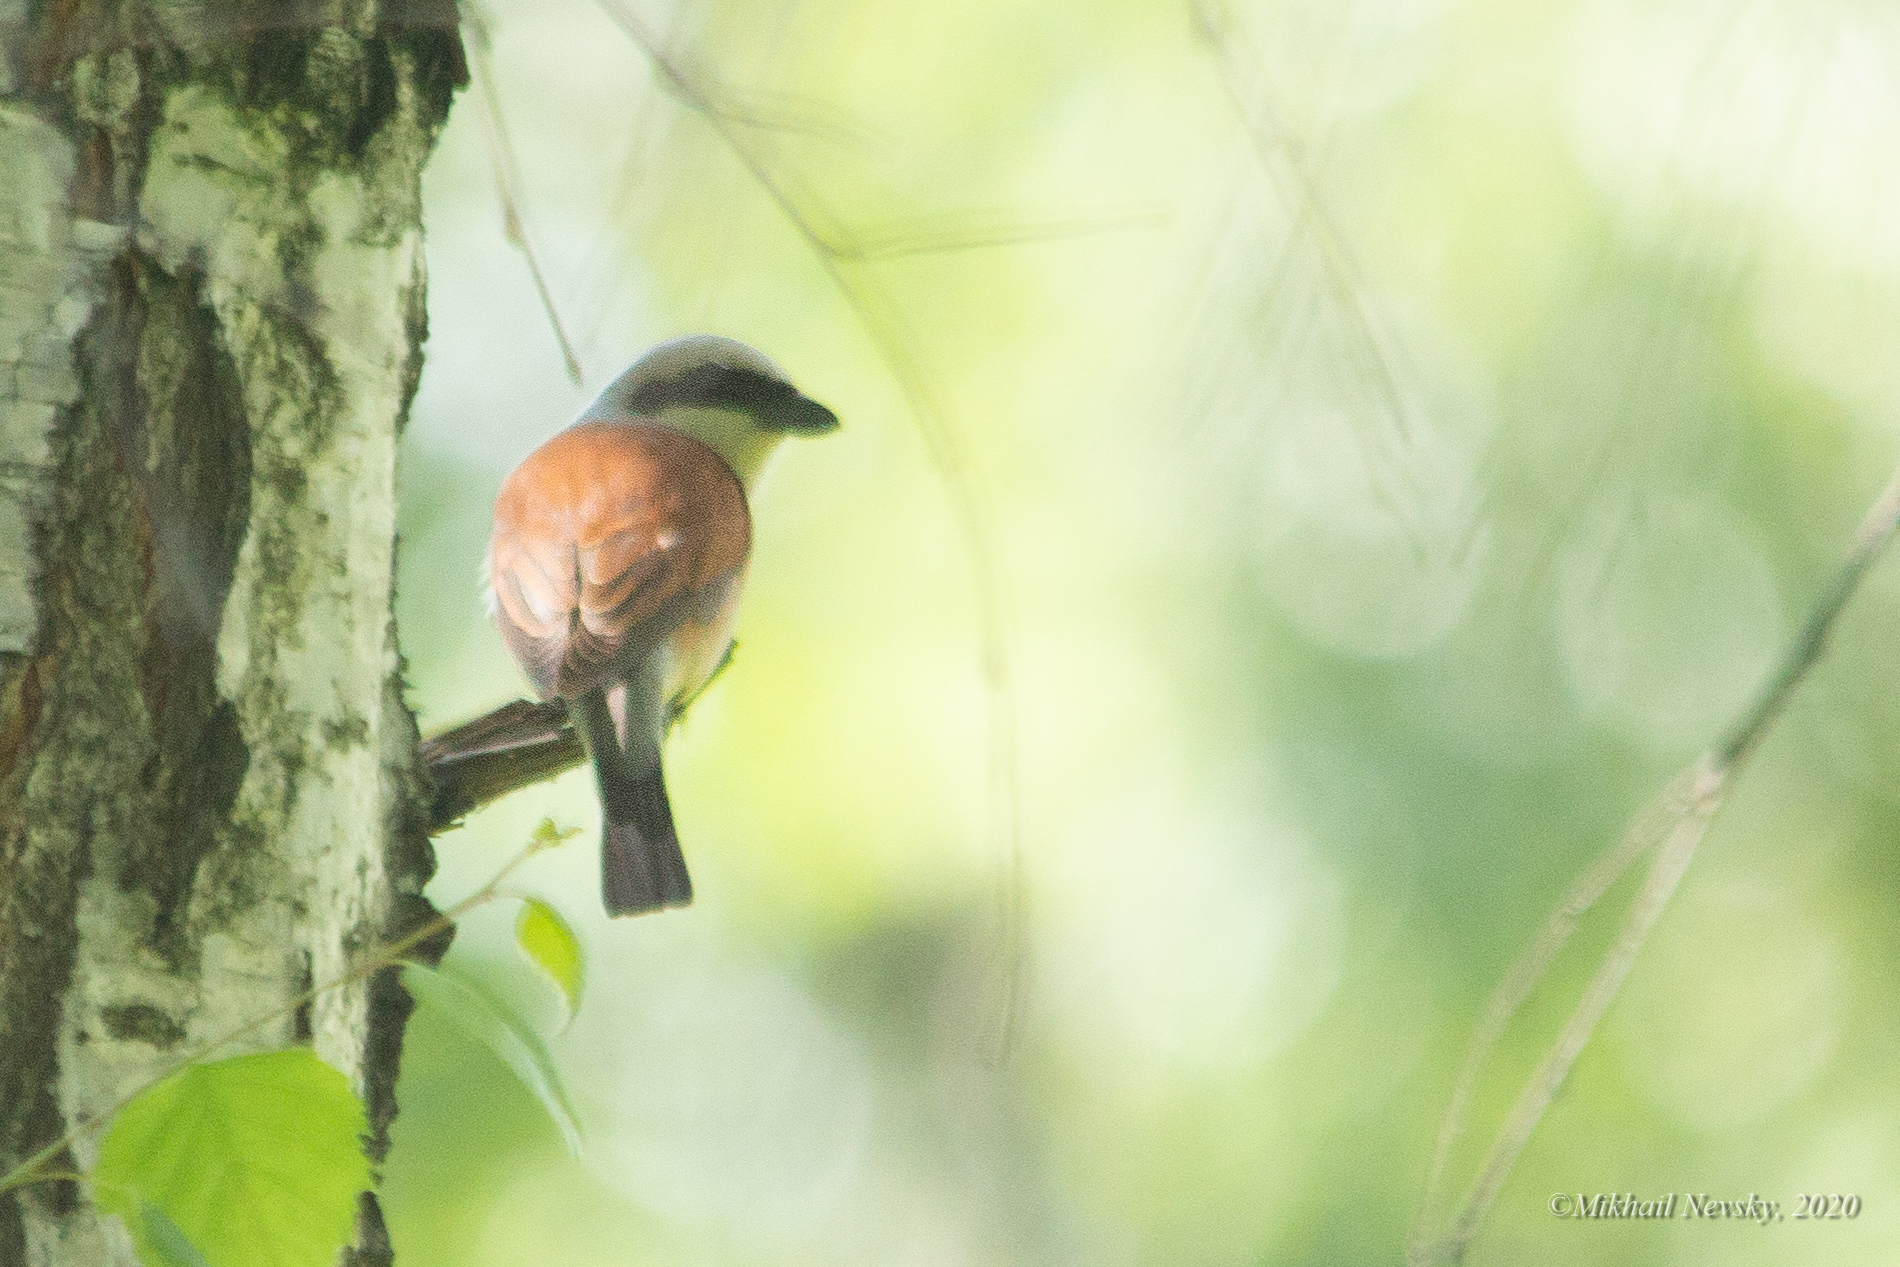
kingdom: Animalia
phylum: Chordata
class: Aves
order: Passeriformes
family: Laniidae
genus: Lanius
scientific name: Lanius collurio
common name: Red-backed shrike
